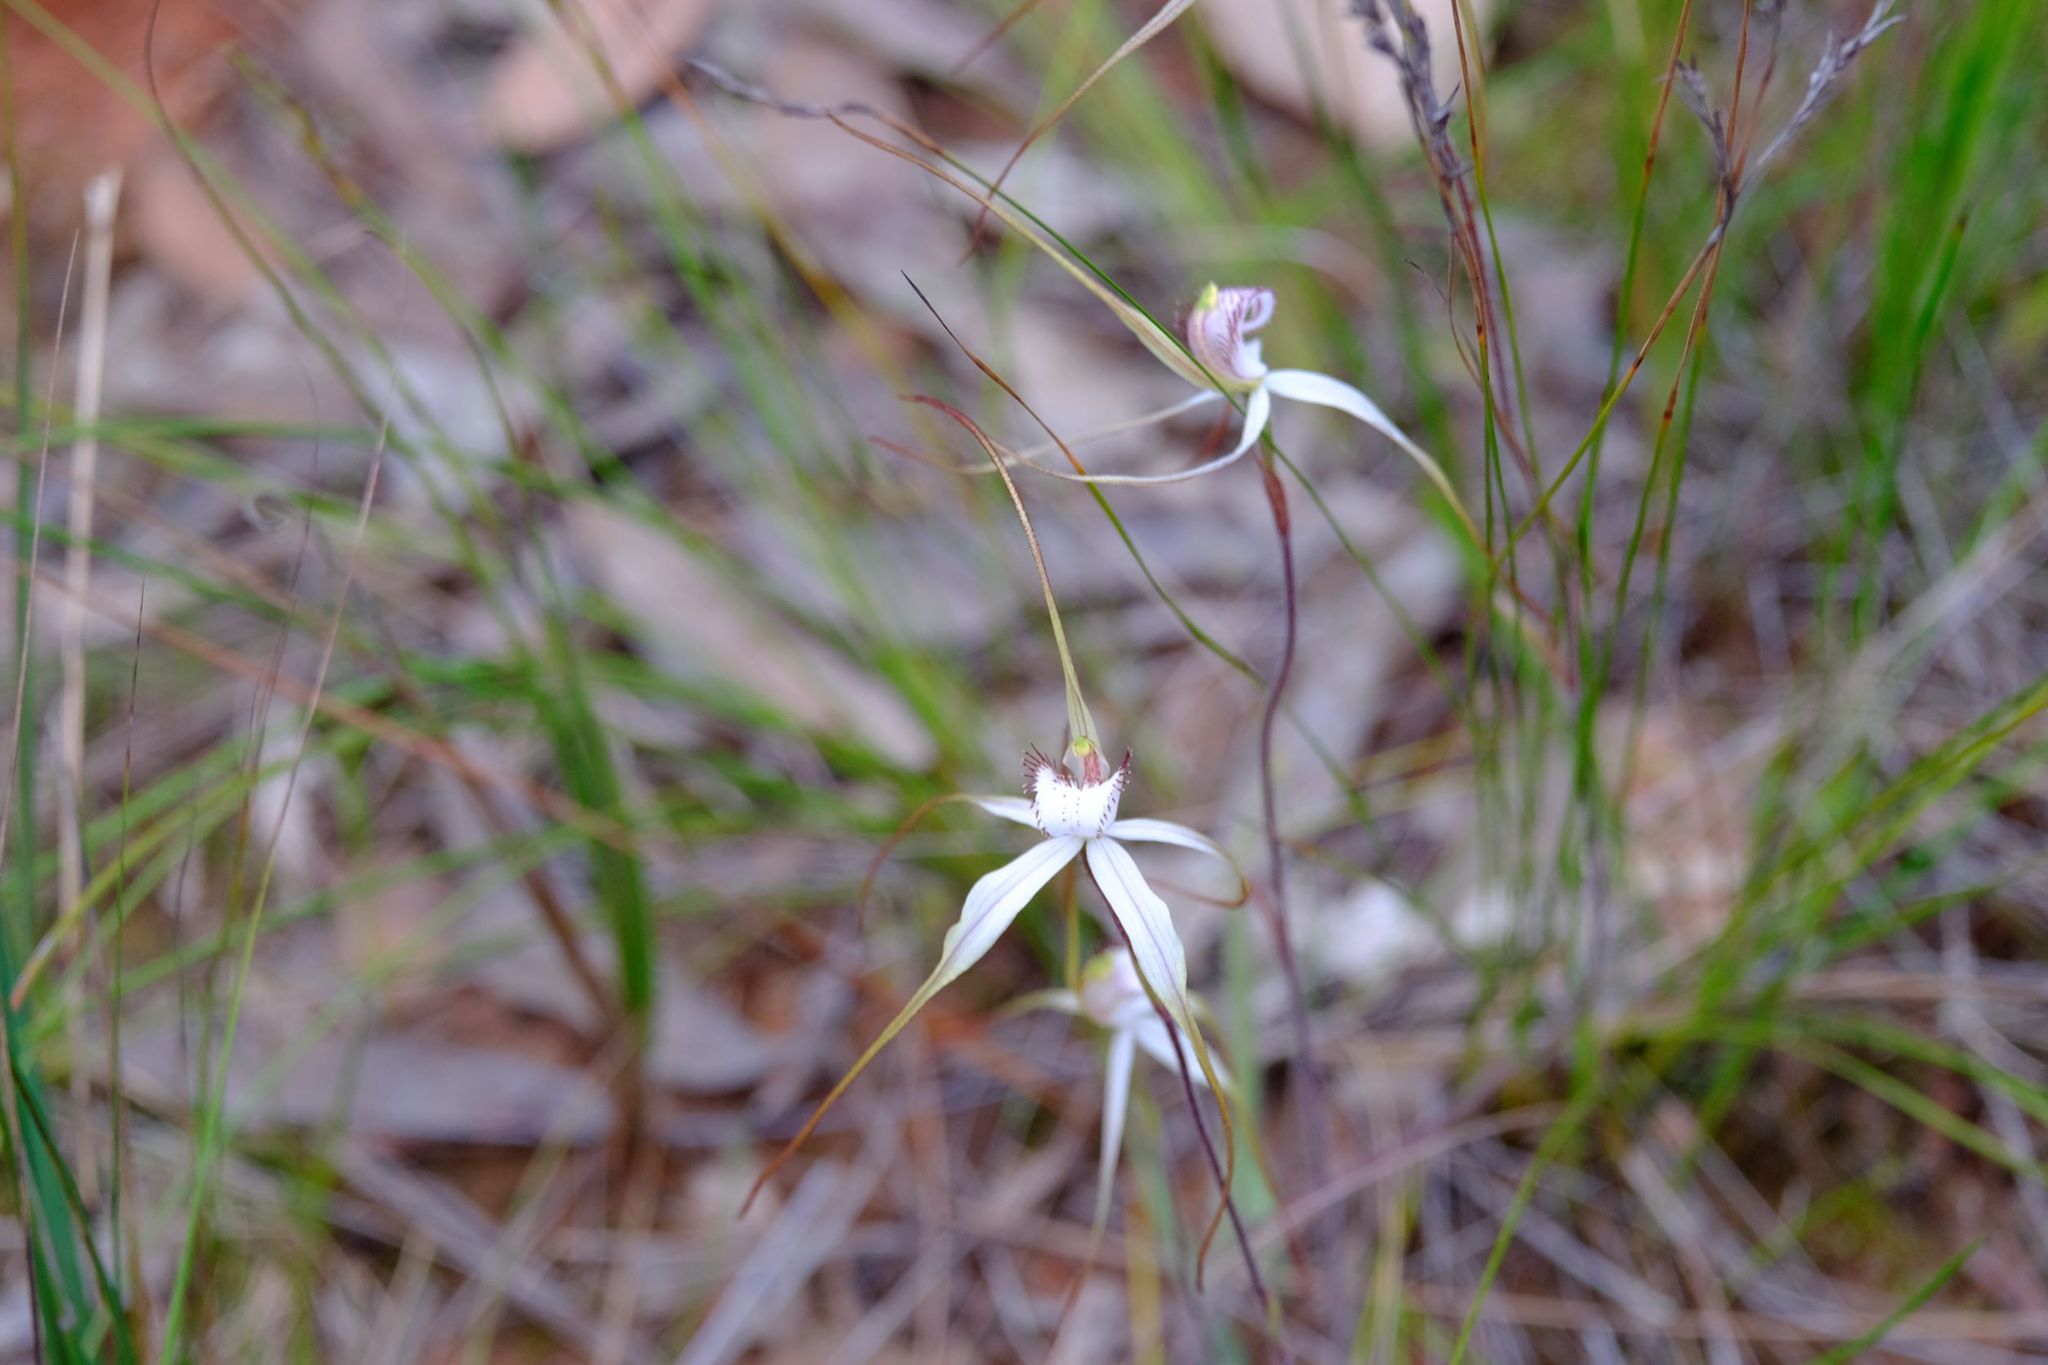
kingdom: Plantae
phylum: Tracheophyta
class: Liliopsida
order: Asparagales
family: Orchidaceae
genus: Caladenia
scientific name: Caladenia venusta
